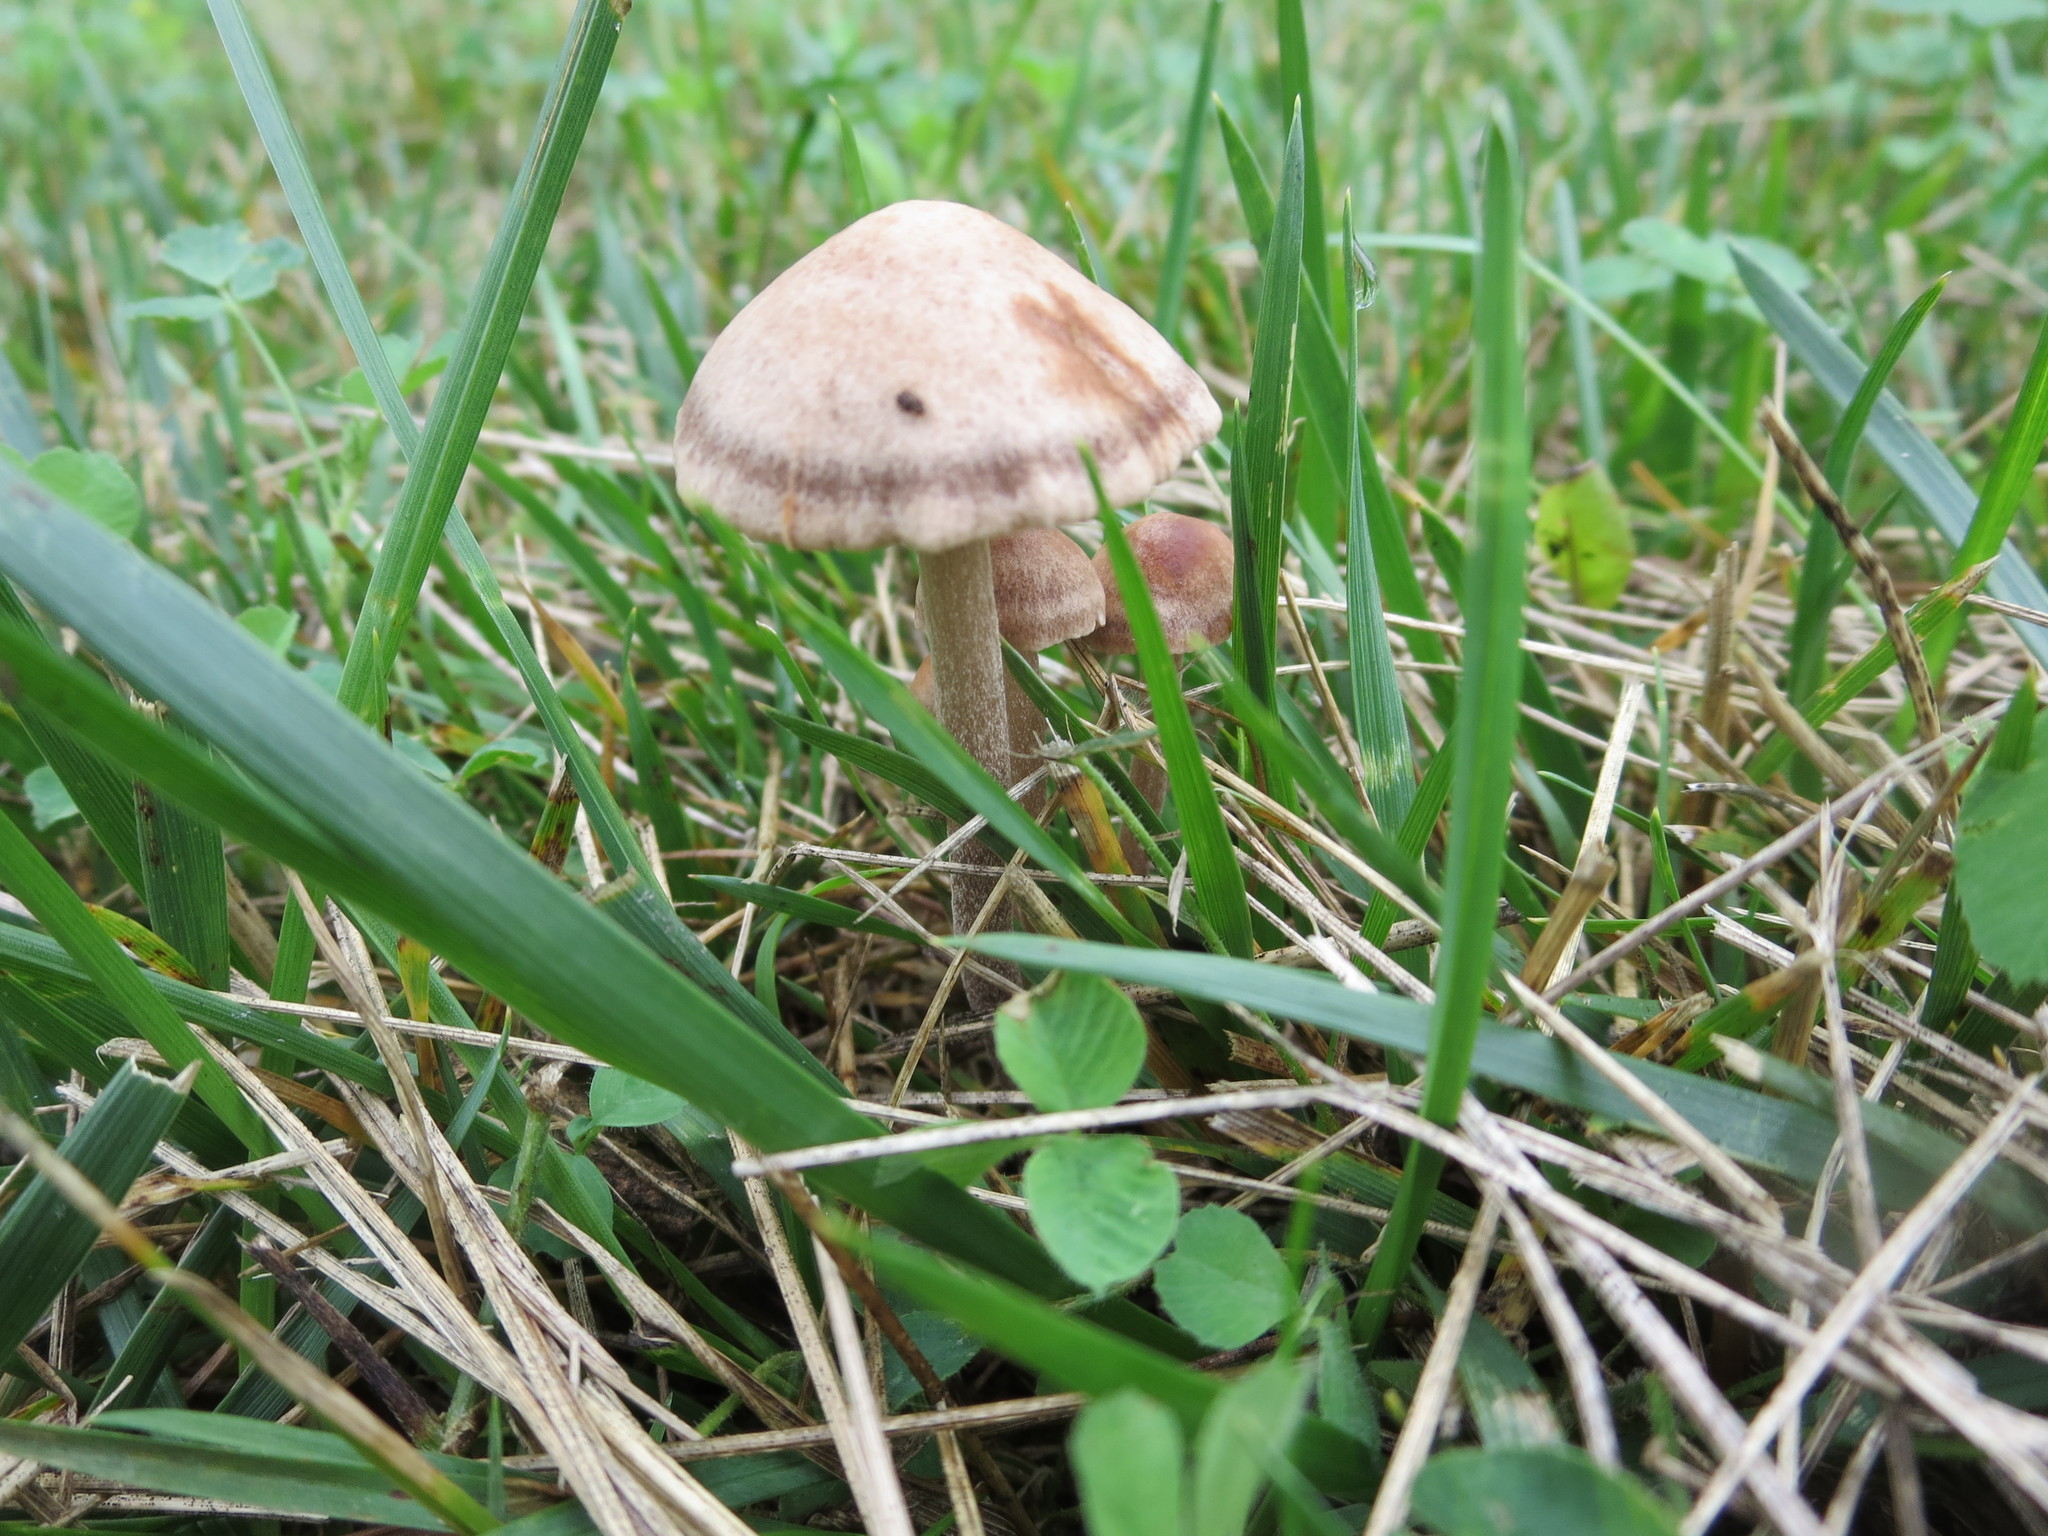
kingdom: Fungi
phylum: Basidiomycota
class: Agaricomycetes
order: Agaricales
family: Bolbitiaceae
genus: Panaeolus
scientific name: Panaeolus cinctulus
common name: Banded mottlegill
